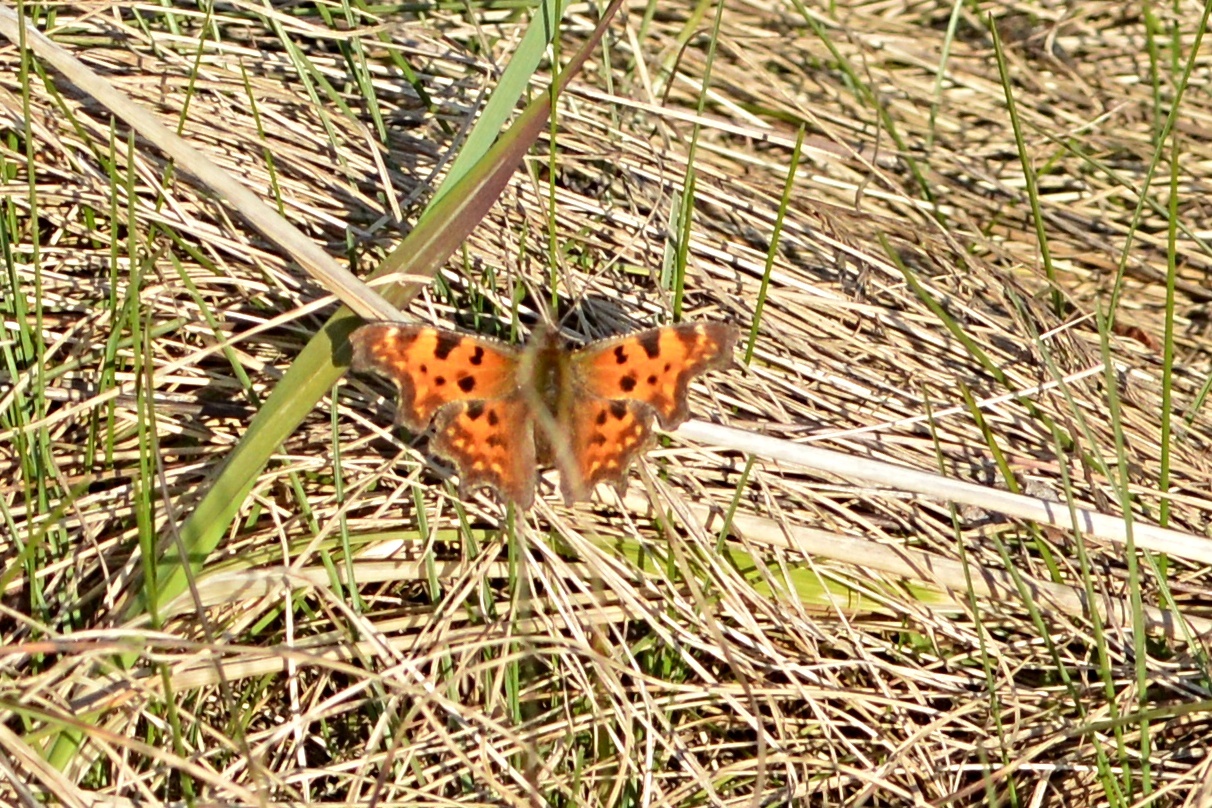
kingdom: Animalia
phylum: Arthropoda
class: Insecta
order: Lepidoptera
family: Nymphalidae
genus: Polygonia
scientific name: Polygonia c-album
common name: Comma
